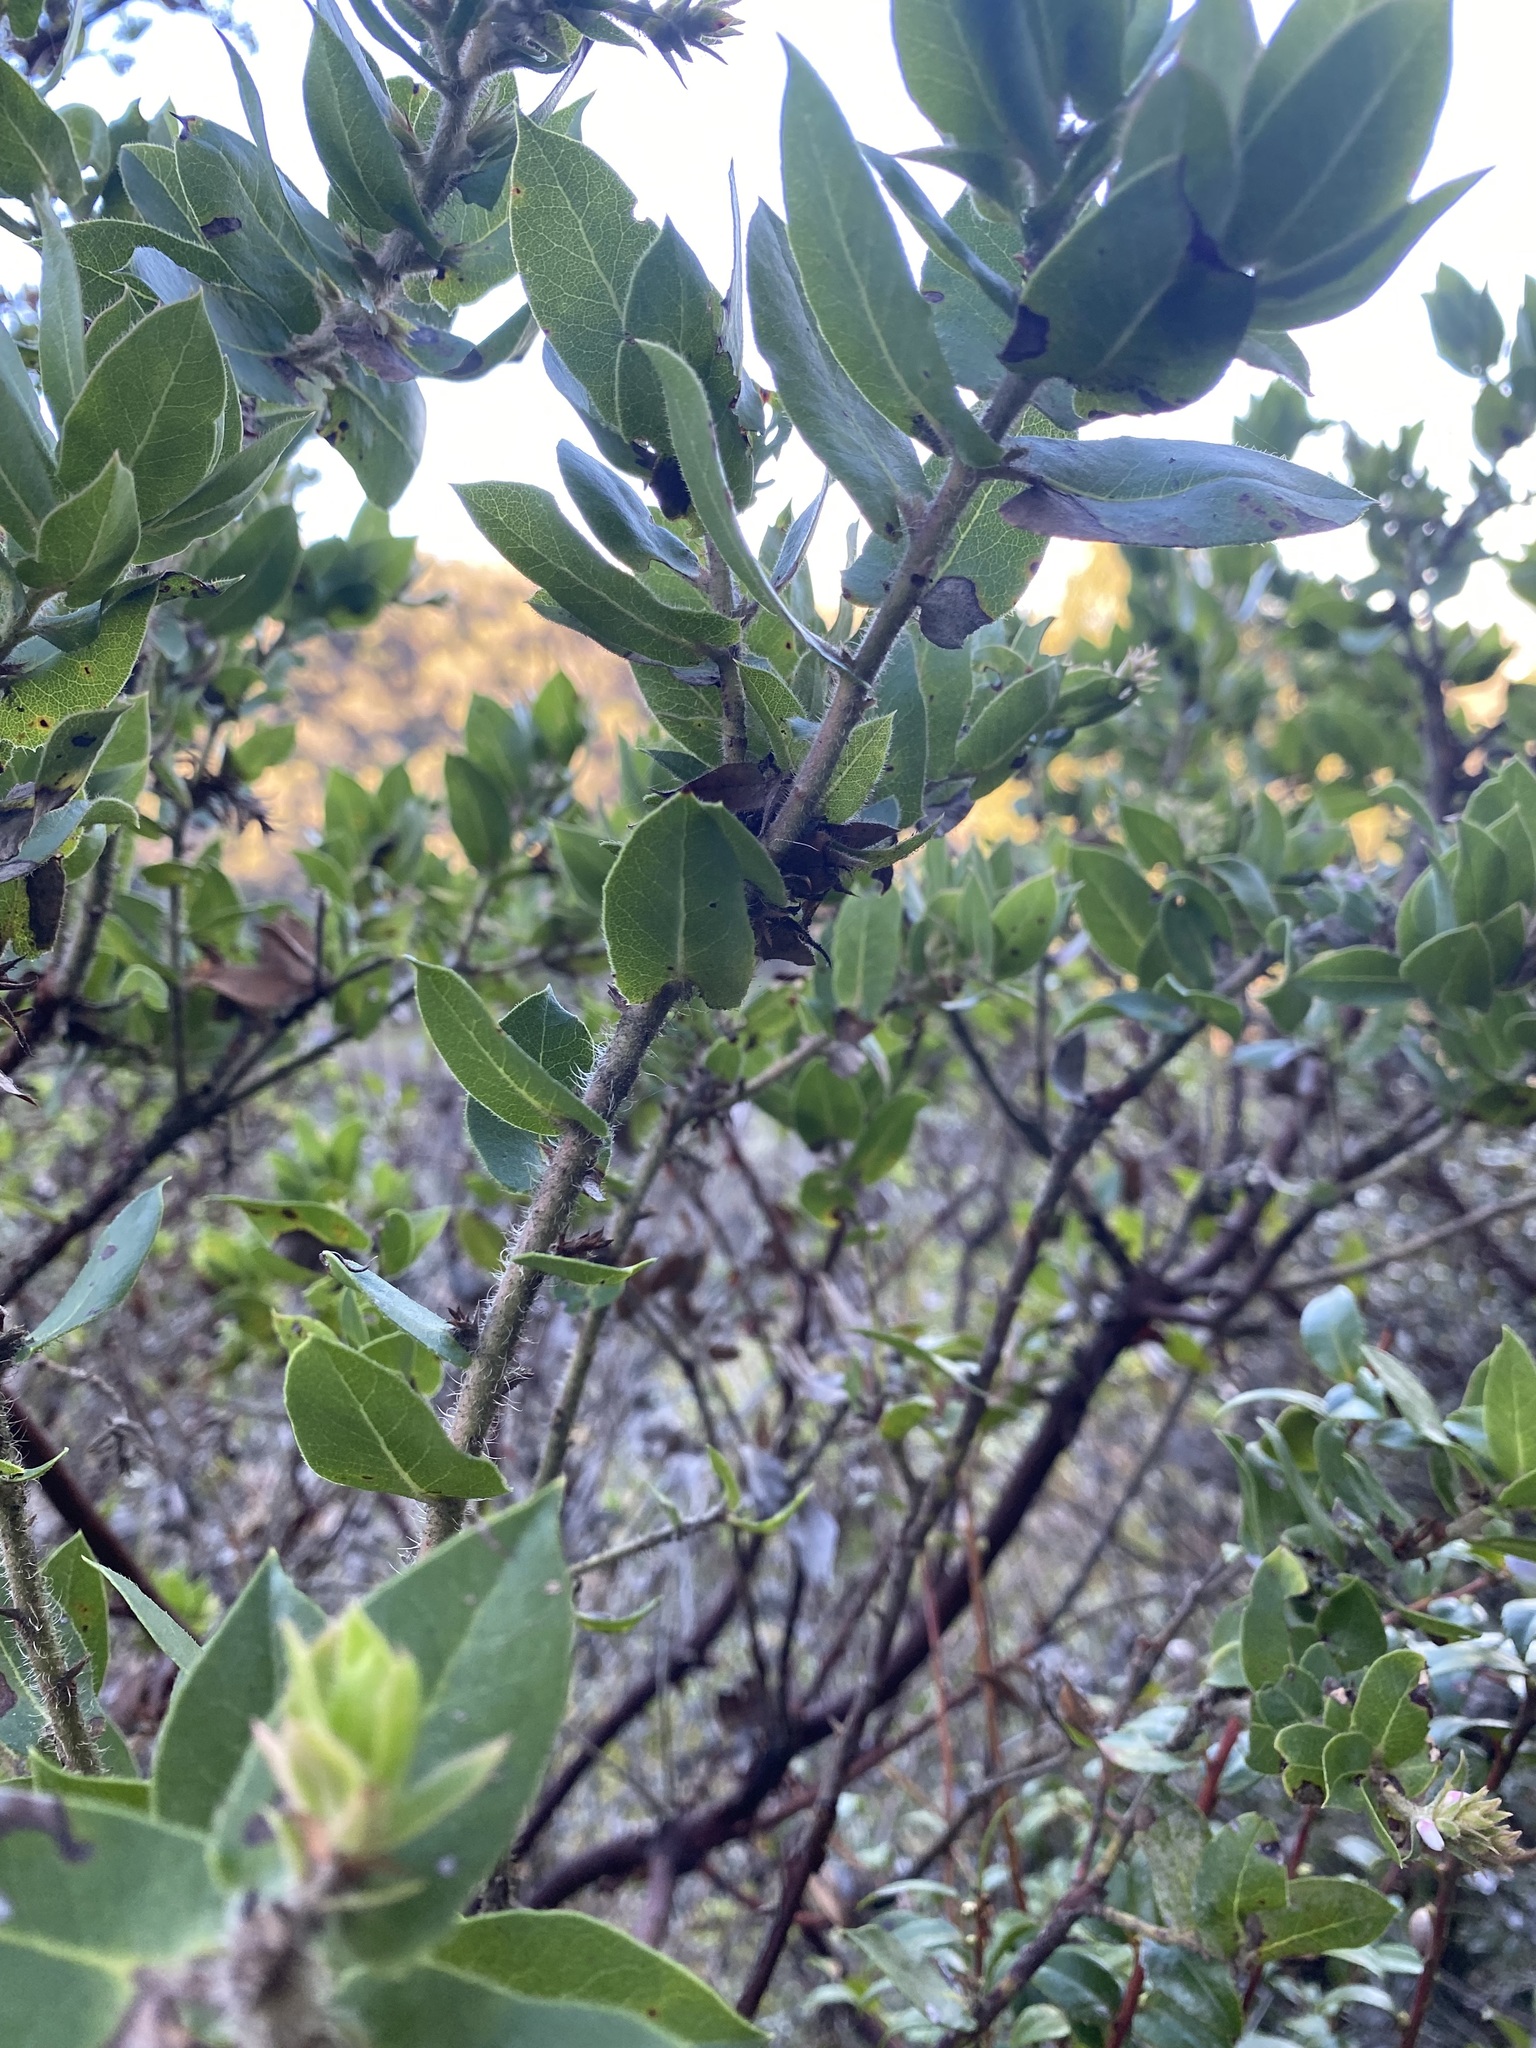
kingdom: Plantae
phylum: Tracheophyta
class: Magnoliopsida
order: Ericales
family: Ericaceae
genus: Arctostaphylos
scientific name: Arctostaphylos montaraensis
